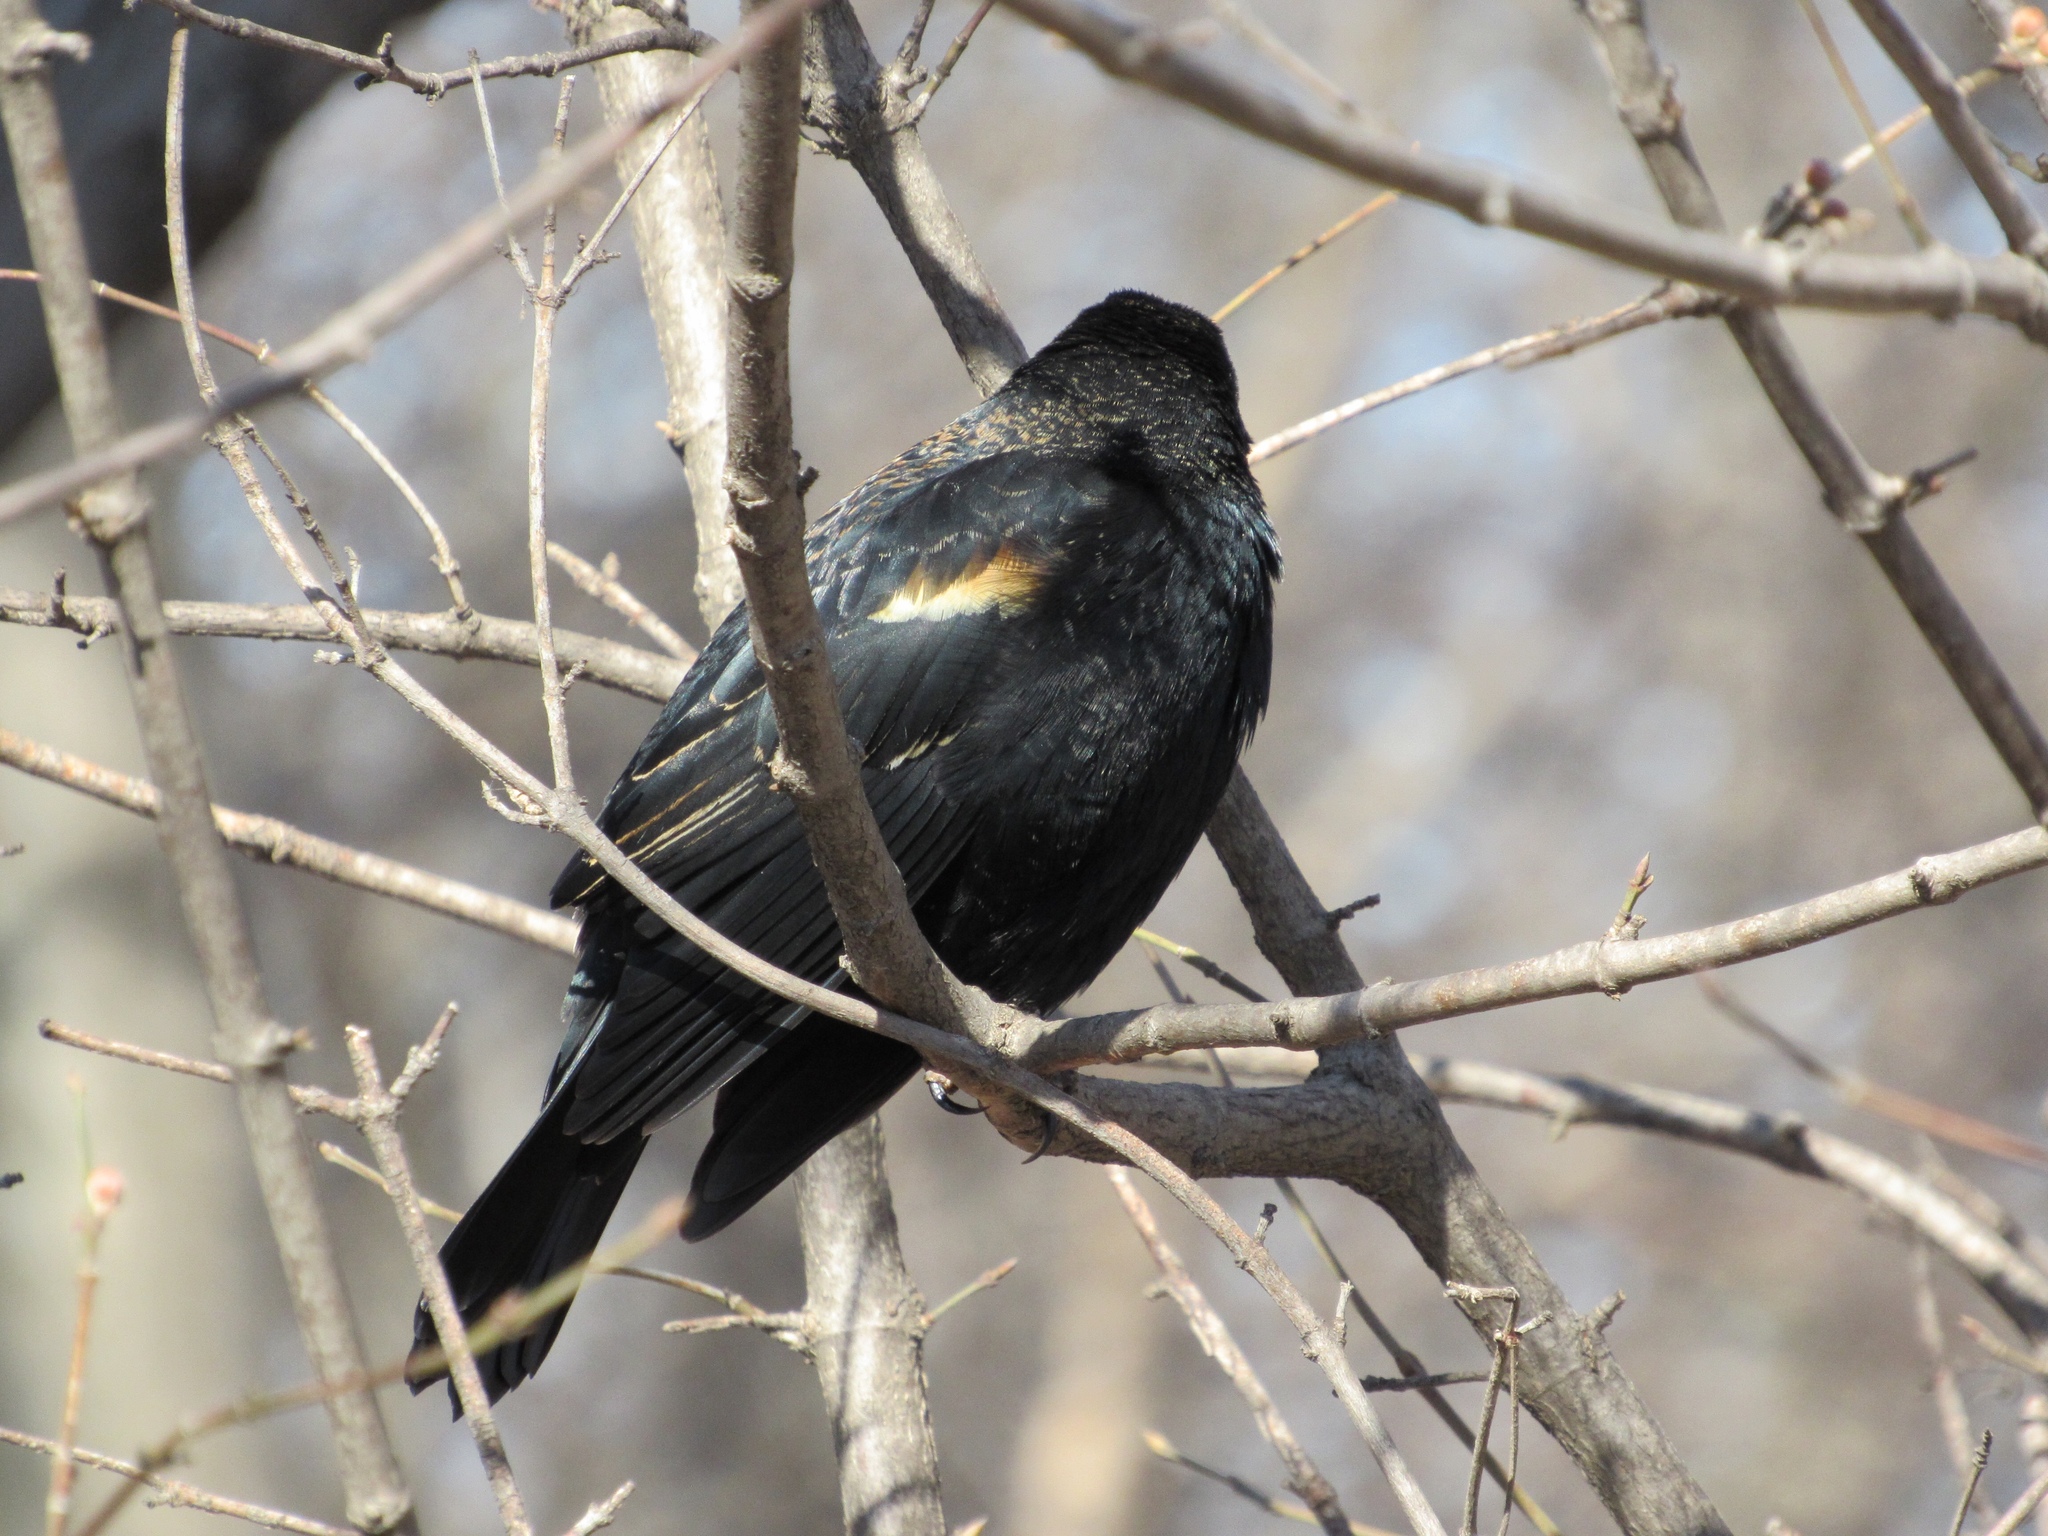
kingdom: Animalia
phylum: Chordata
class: Aves
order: Passeriformes
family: Icteridae
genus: Agelaius
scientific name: Agelaius phoeniceus
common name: Red-winged blackbird
